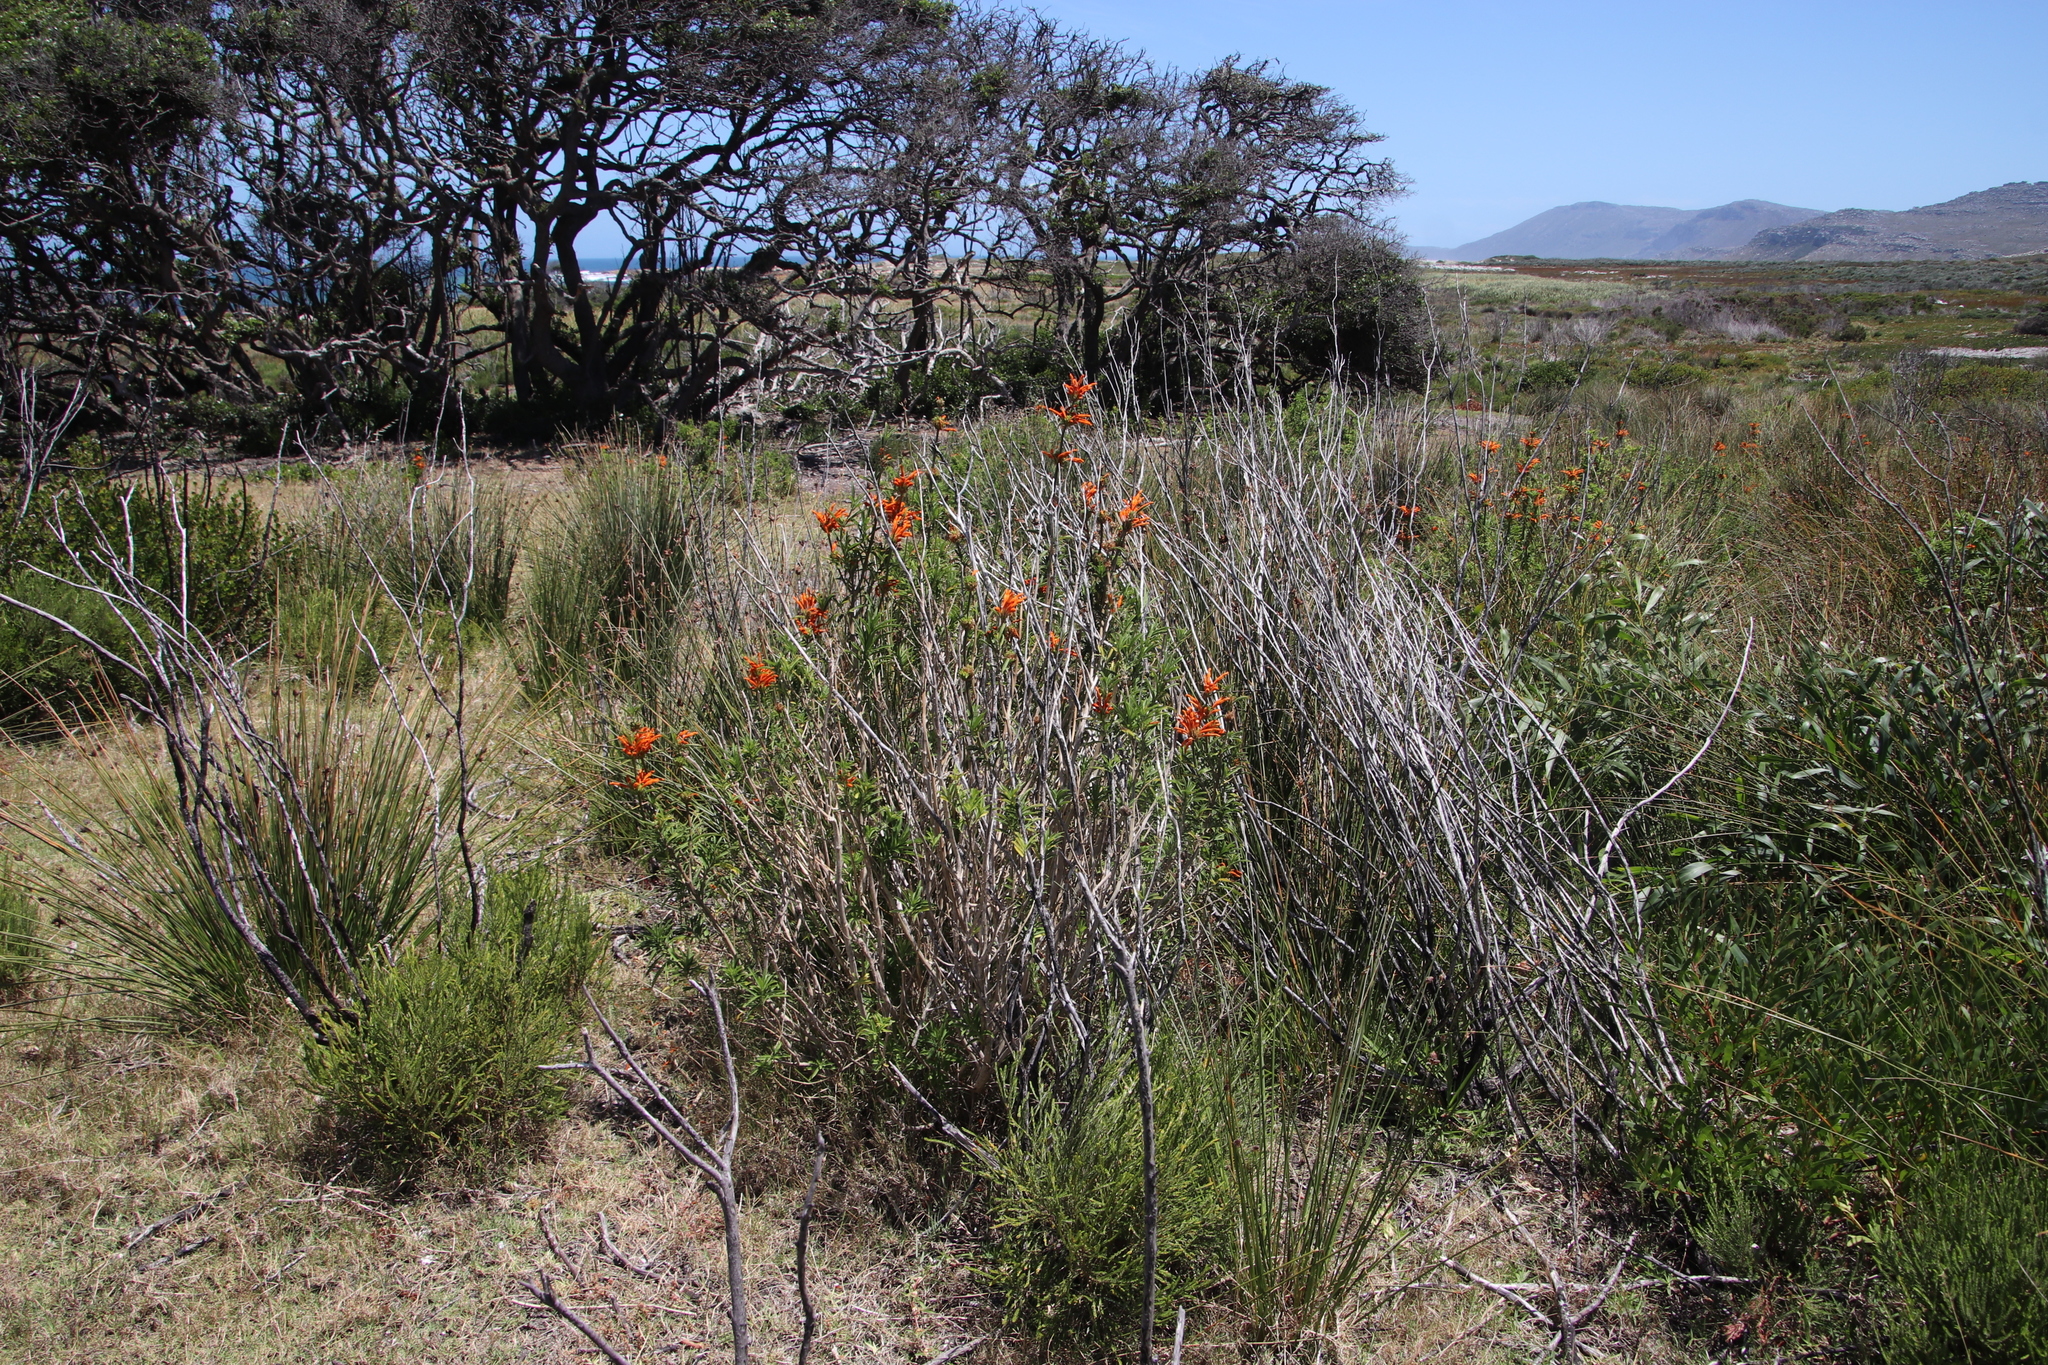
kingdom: Plantae
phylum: Tracheophyta
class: Magnoliopsida
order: Lamiales
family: Lamiaceae
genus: Leonotis
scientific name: Leonotis leonurus
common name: Lion's ear
